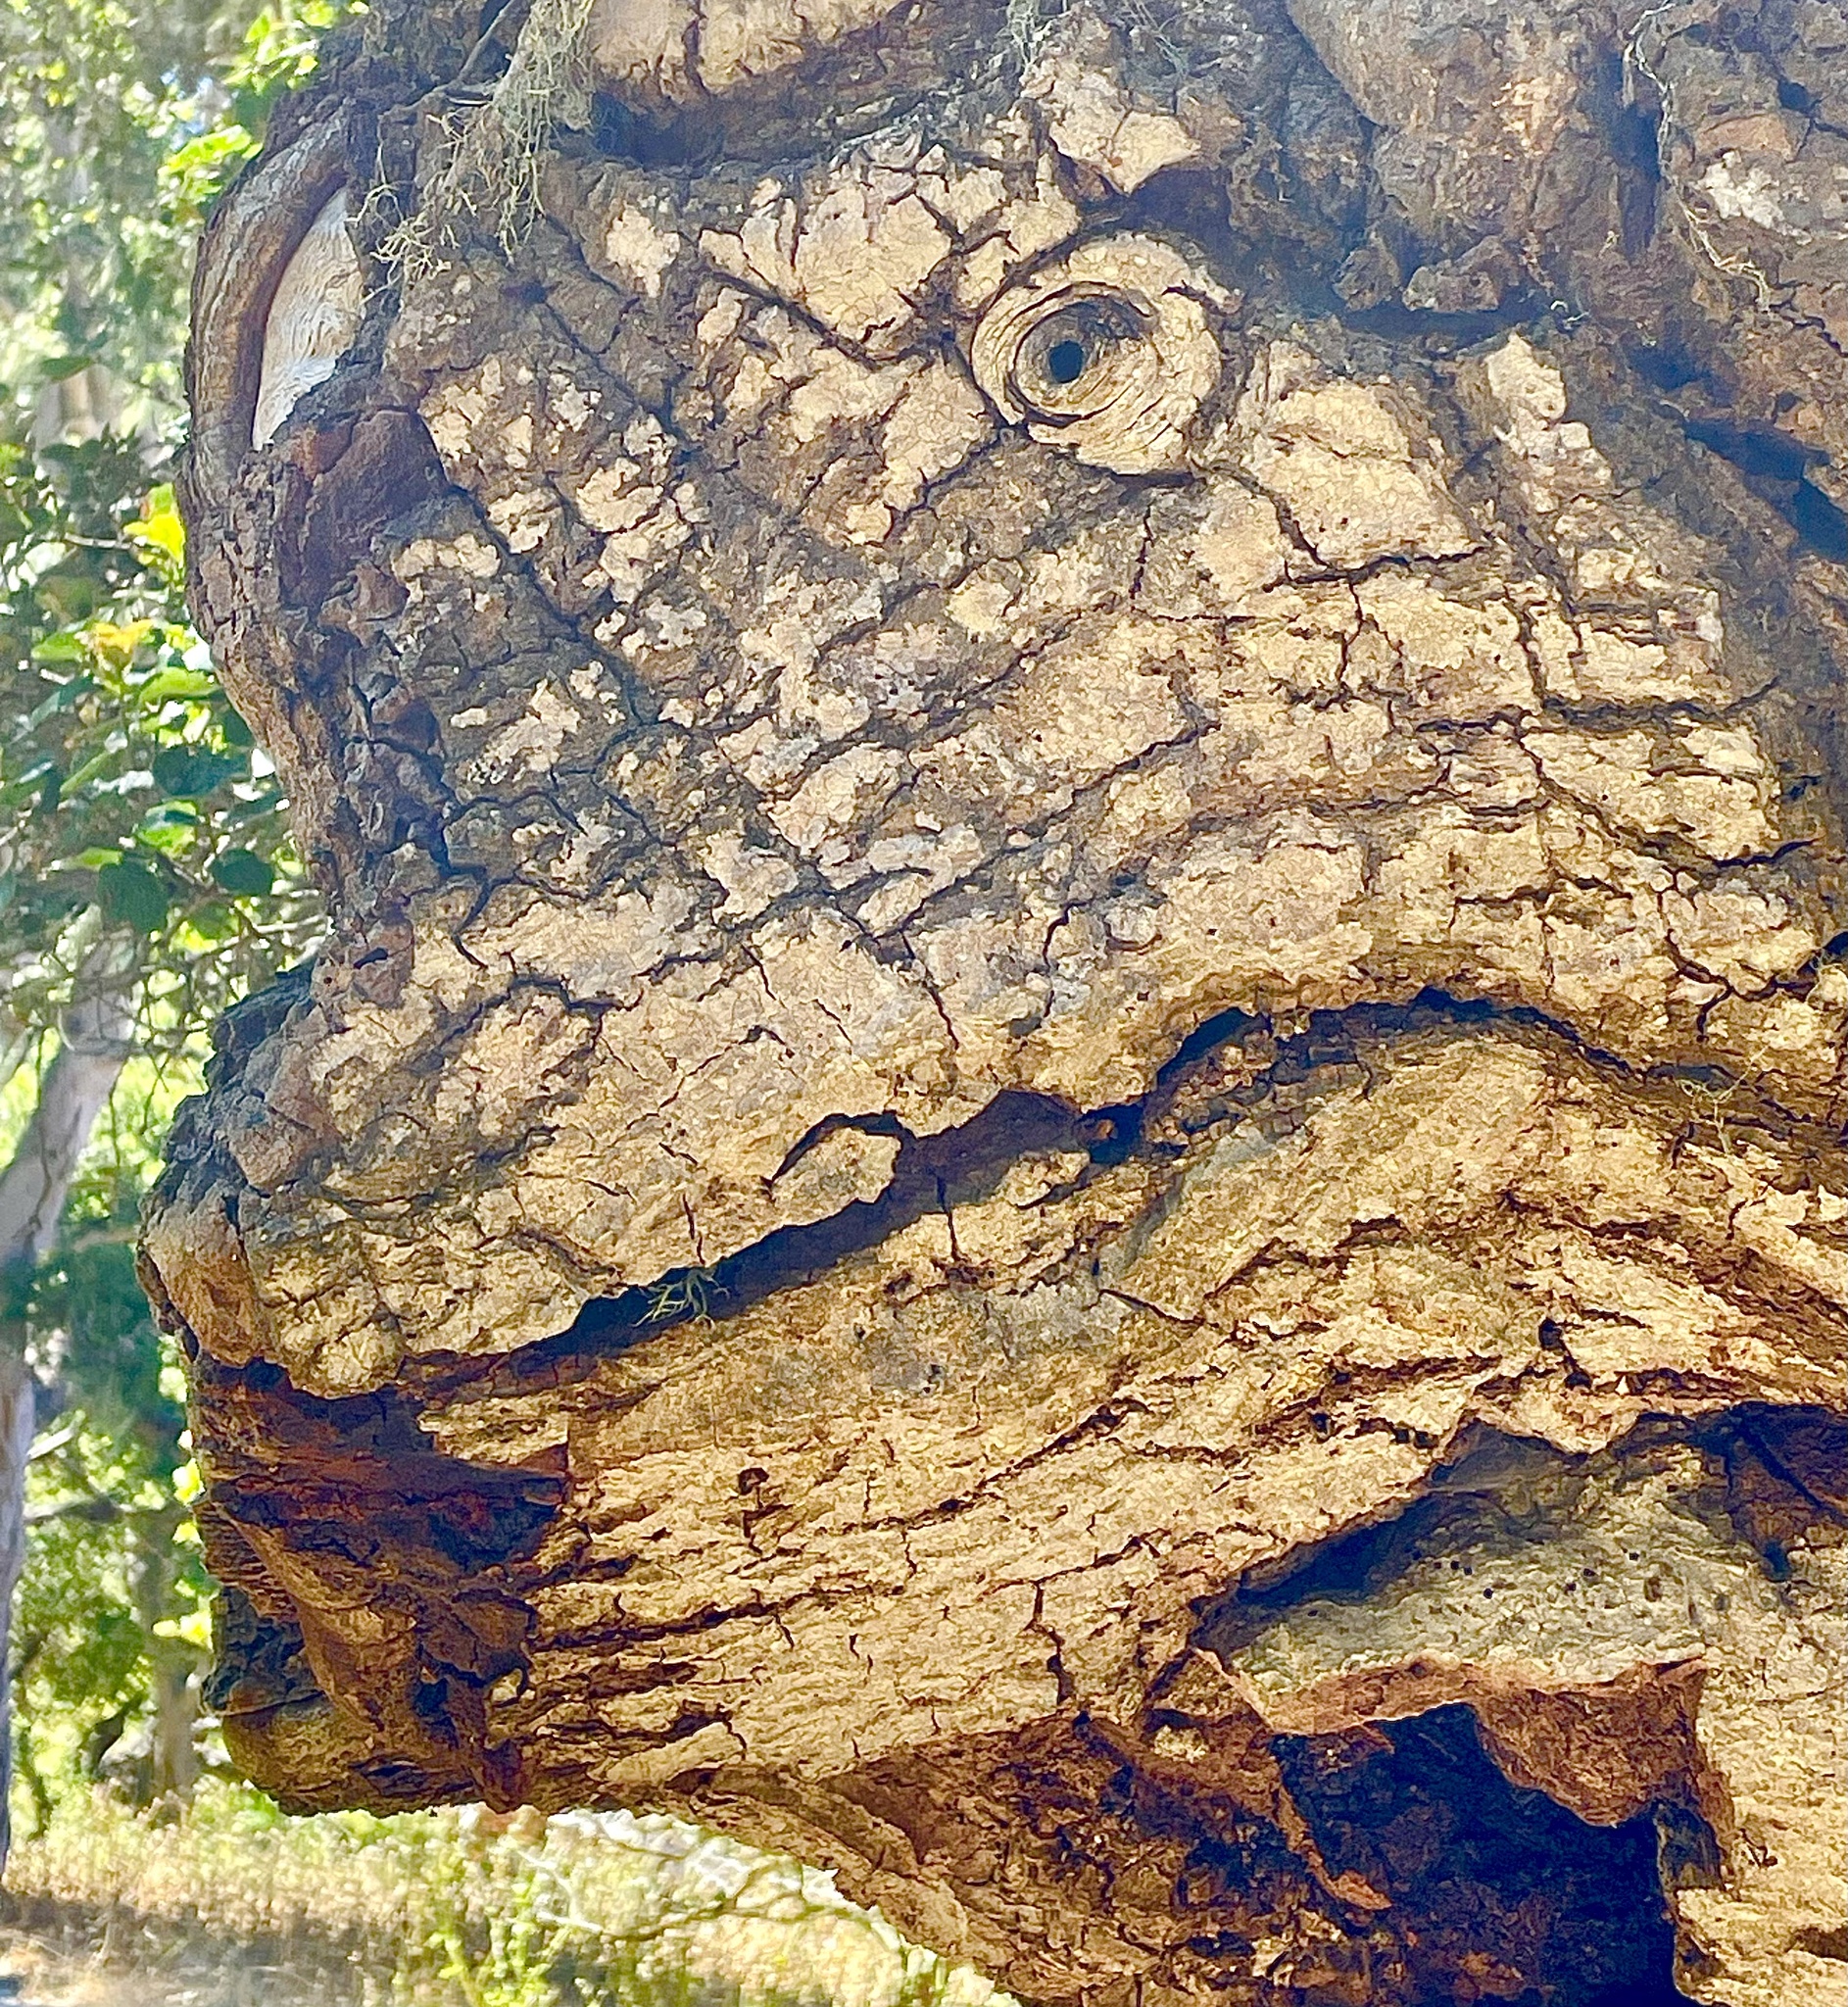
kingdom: Plantae
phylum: Tracheophyta
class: Magnoliopsida
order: Fagales
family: Fagaceae
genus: Quercus
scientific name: Quercus agrifolia
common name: California live oak
